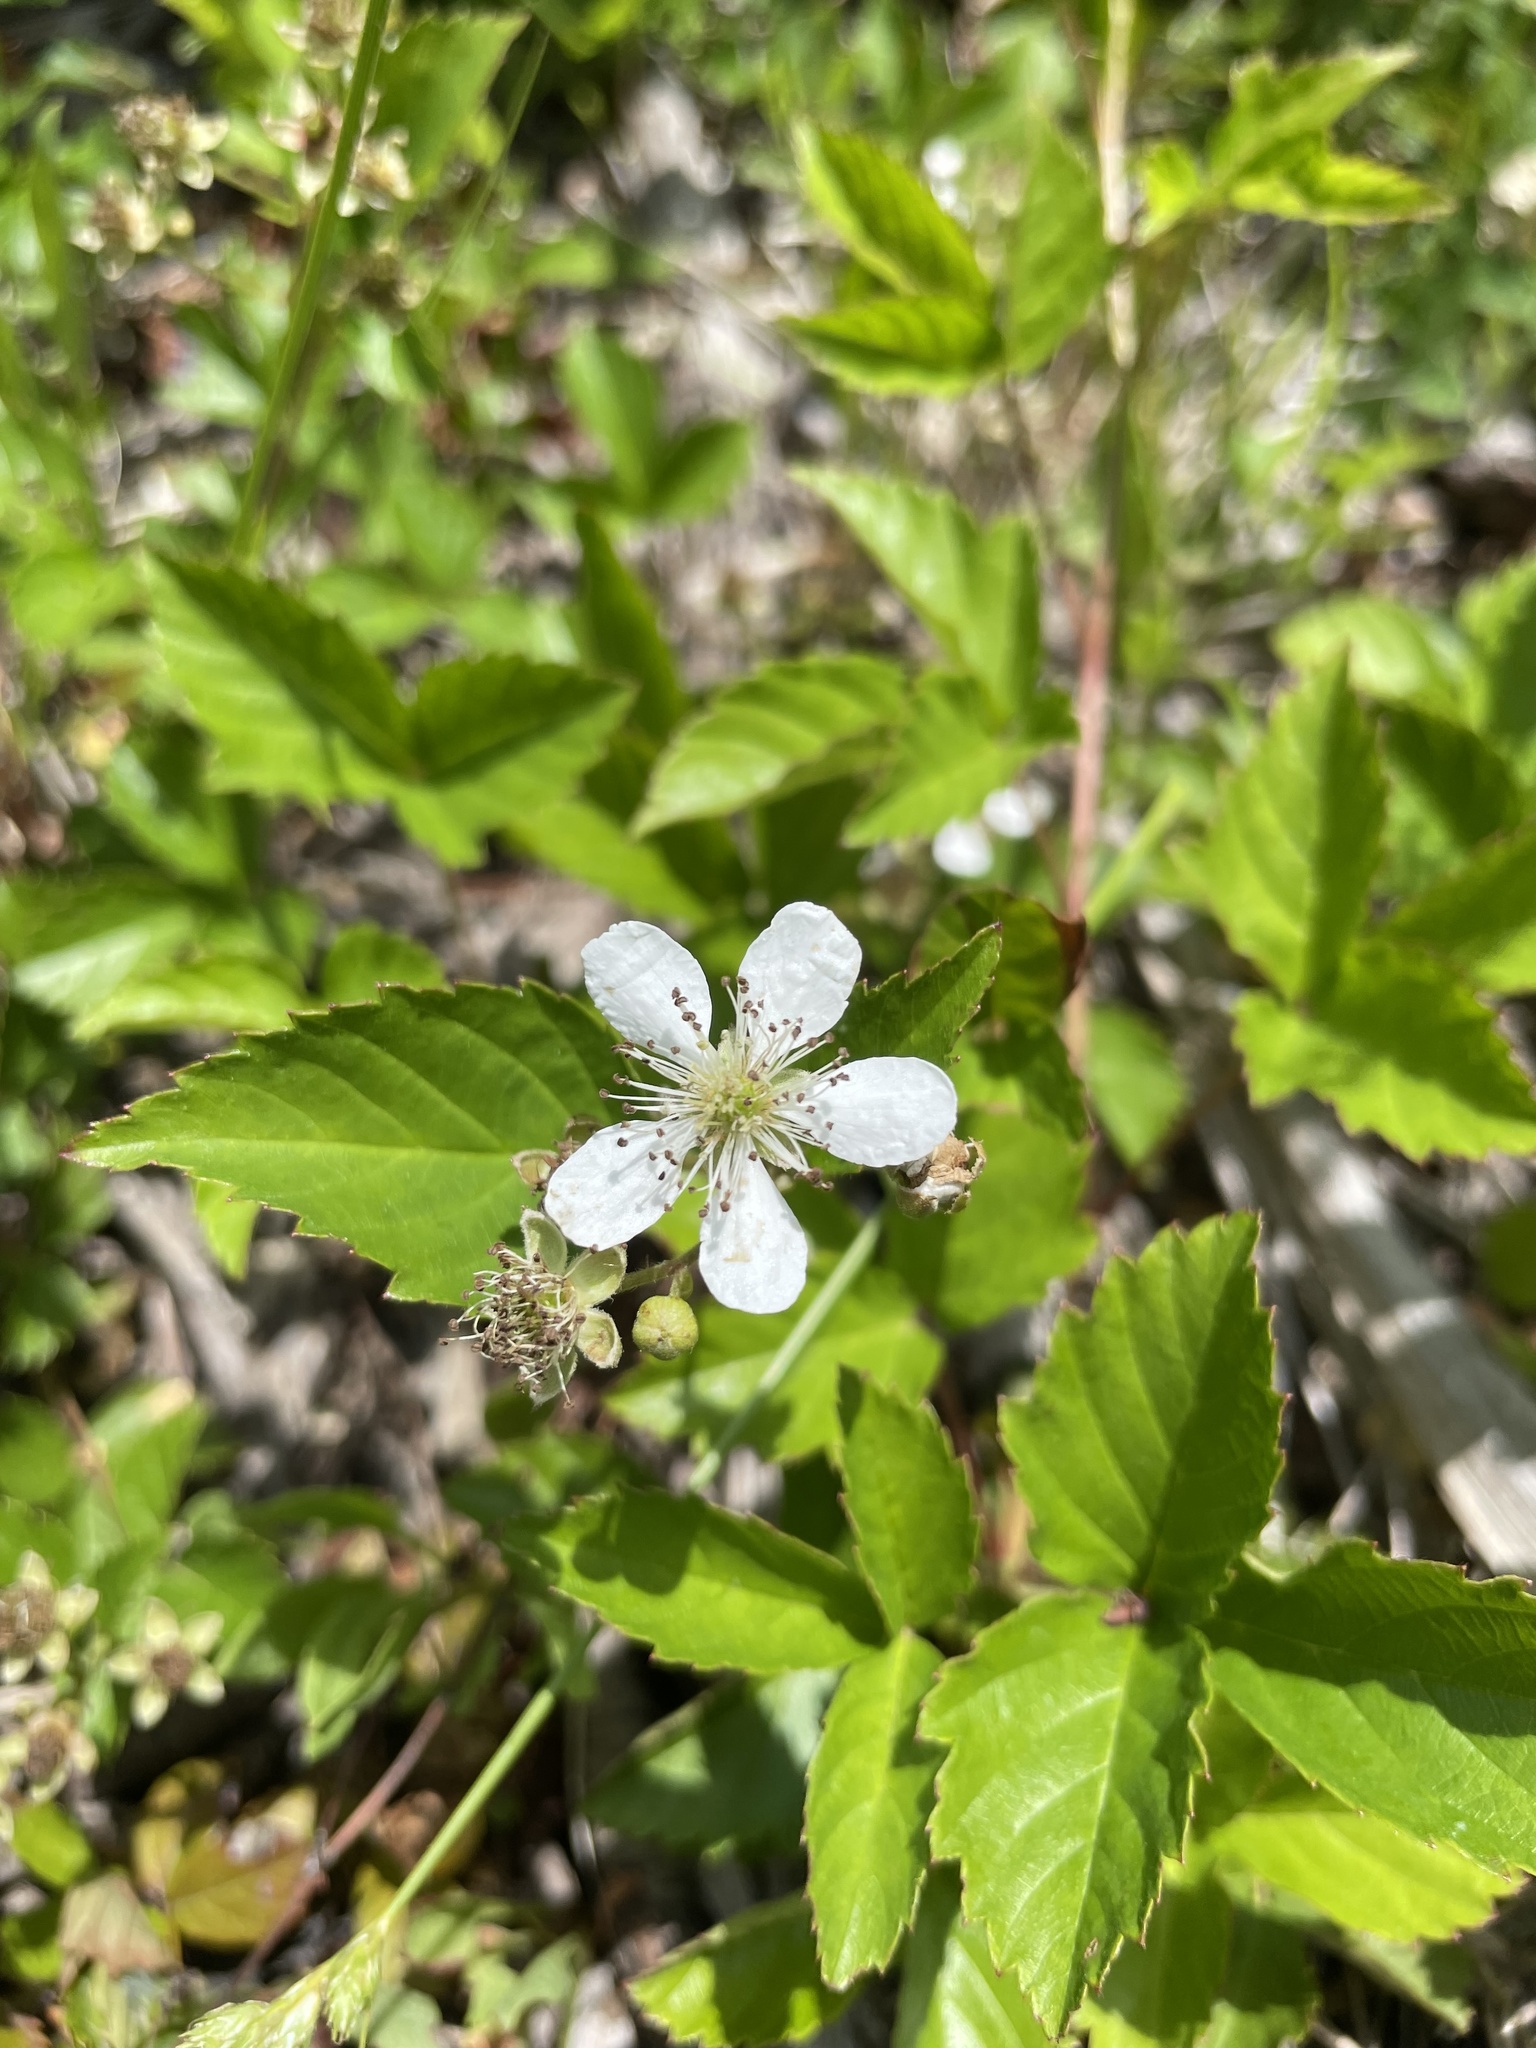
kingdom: Animalia
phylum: Arthropoda
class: Insecta
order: Hymenoptera
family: Megachilidae
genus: Osmia
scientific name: Osmia felti
